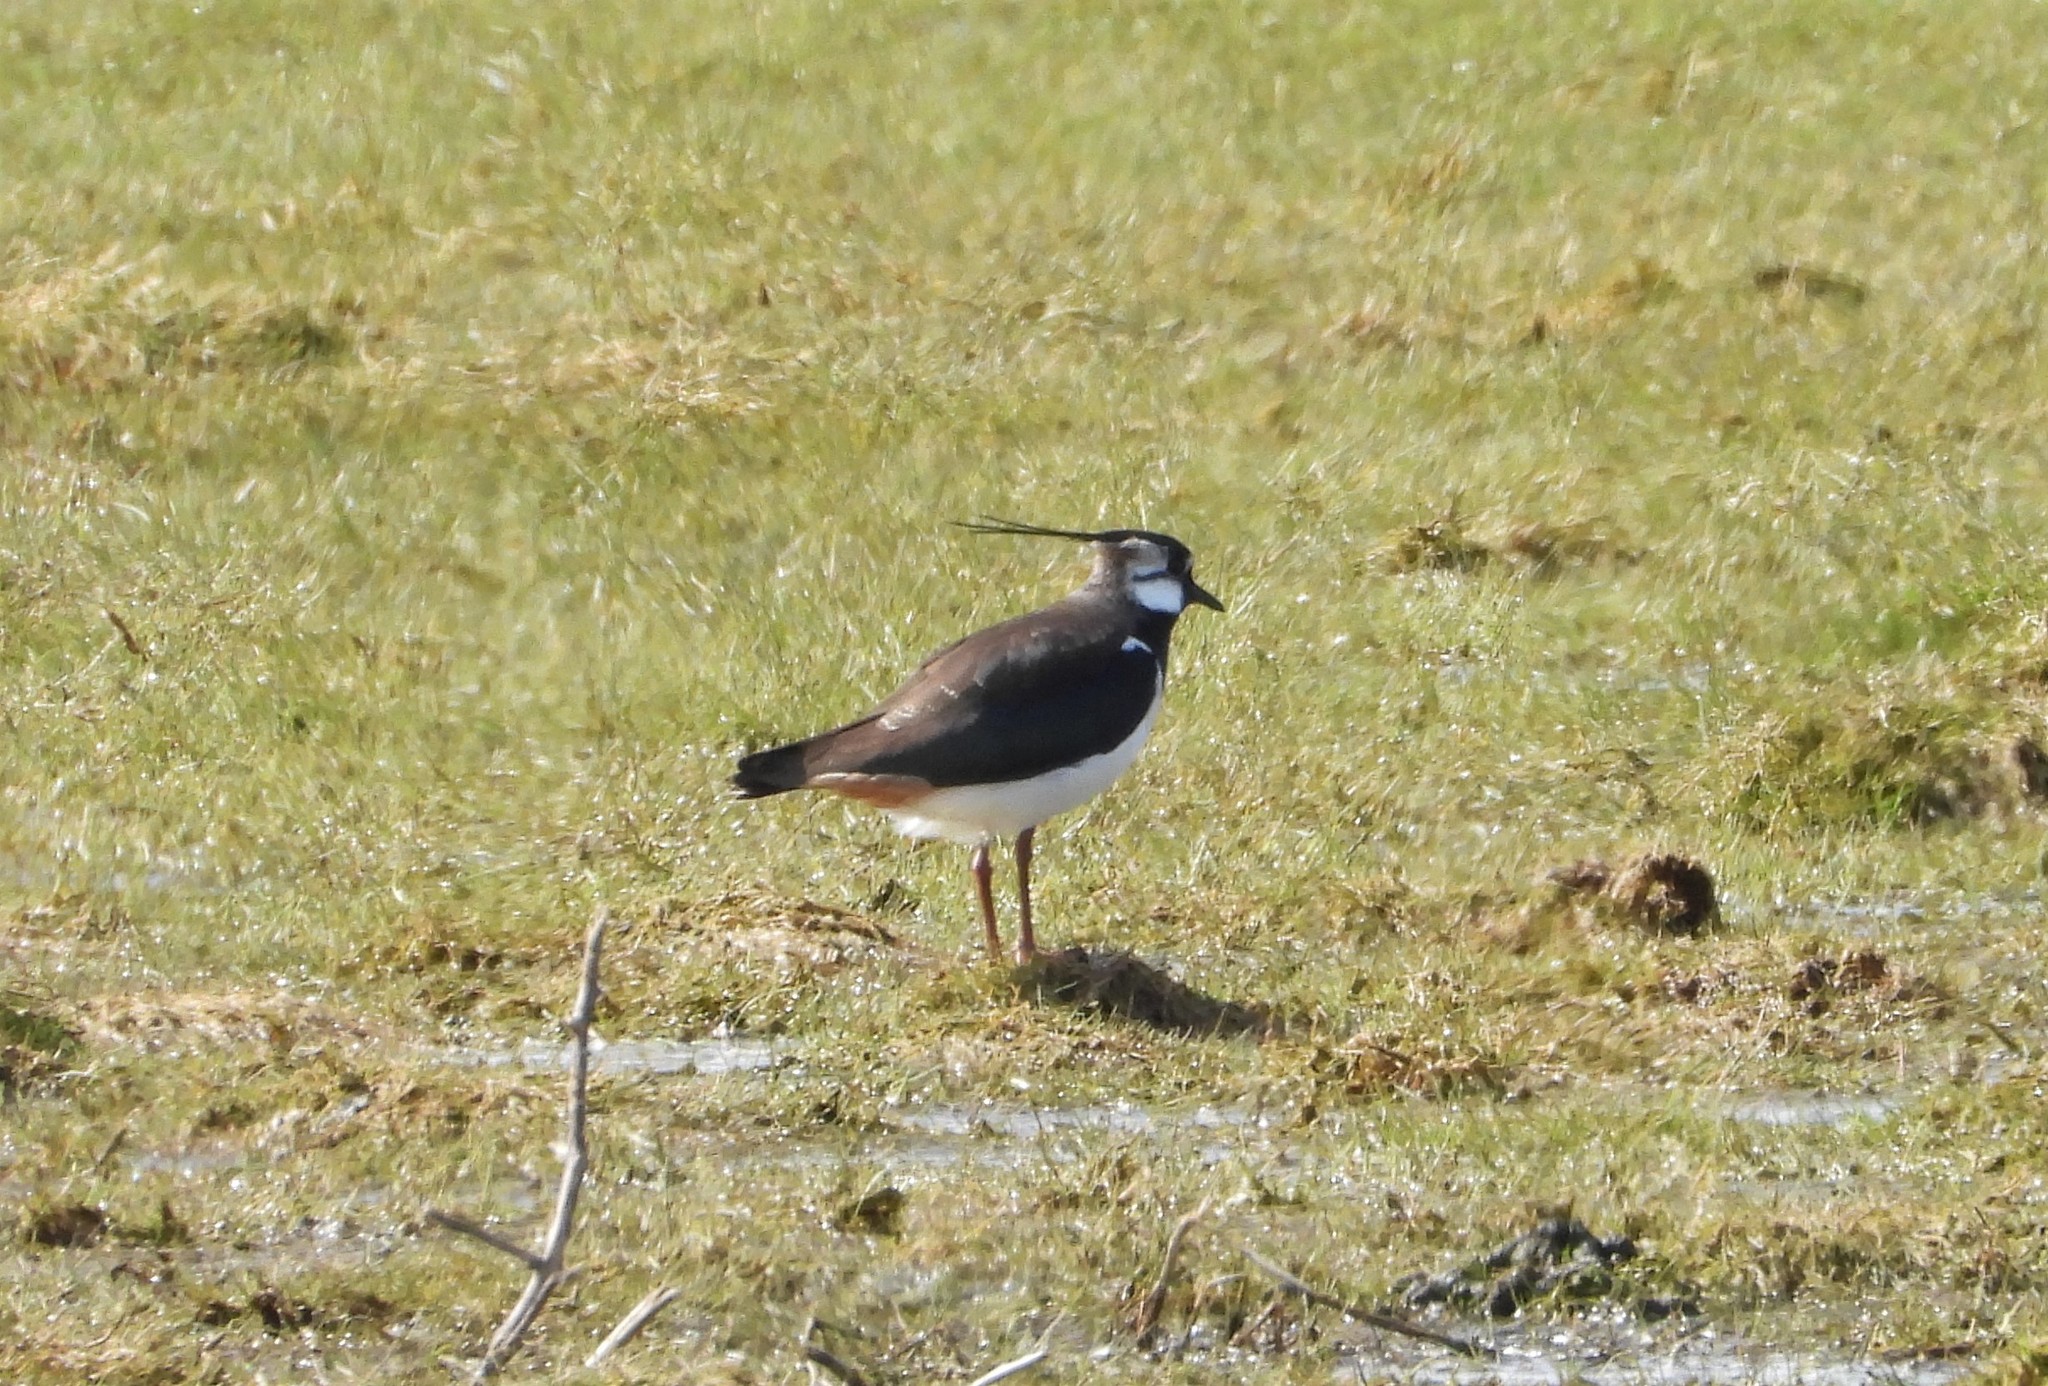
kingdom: Animalia
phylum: Chordata
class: Aves
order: Charadriiformes
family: Charadriidae
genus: Vanellus
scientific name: Vanellus vanellus
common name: Northern lapwing
